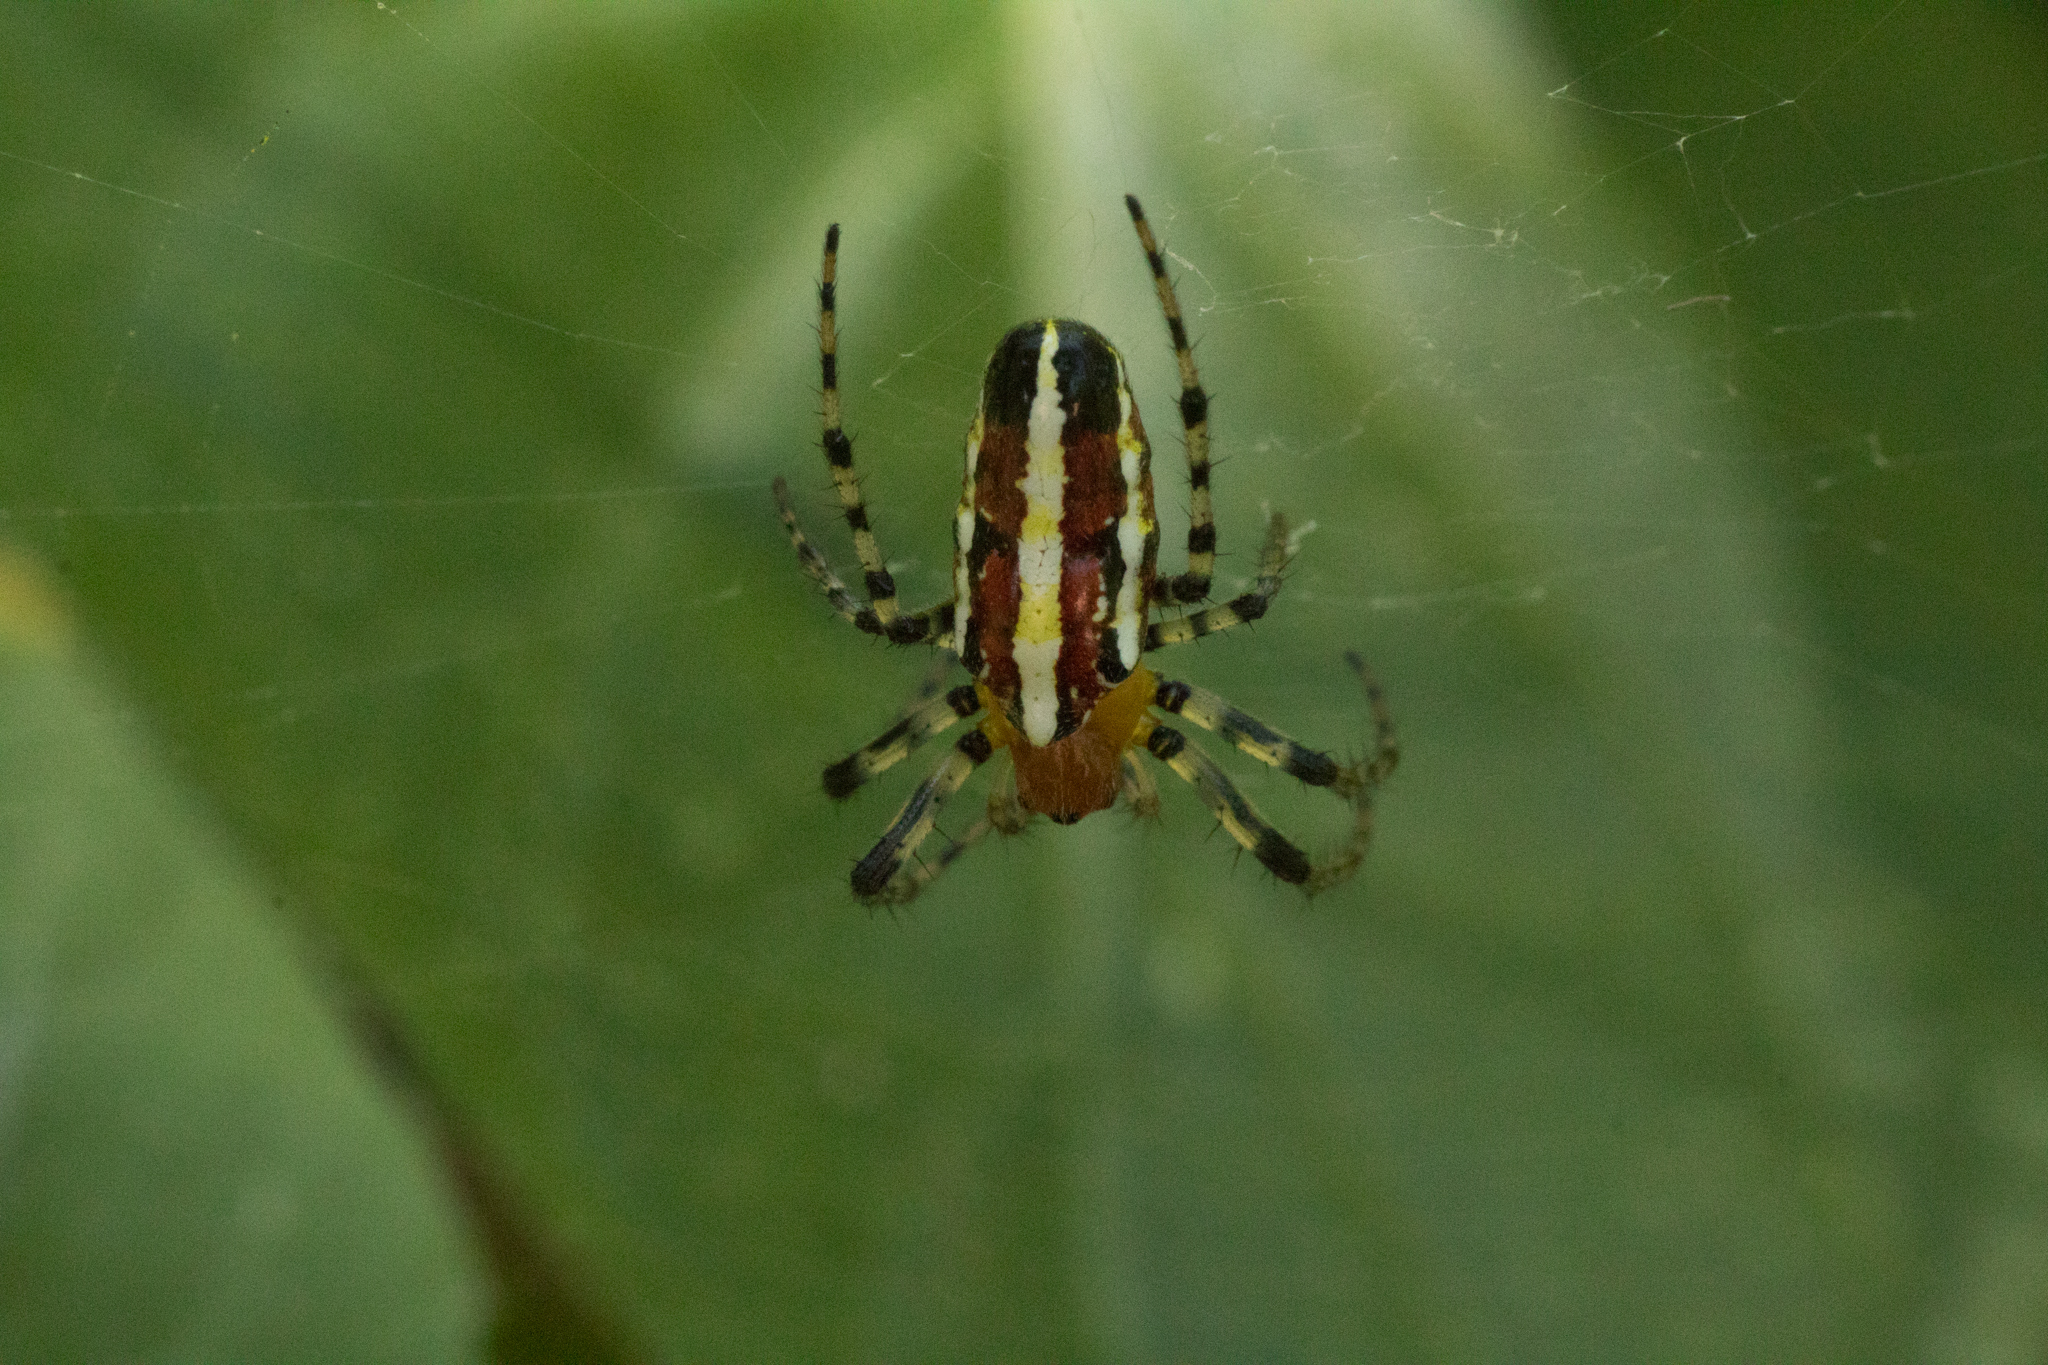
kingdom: Animalia
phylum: Arthropoda
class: Arachnida
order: Araneae
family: Araneidae
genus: Alpaida
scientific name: Alpaida grayi
